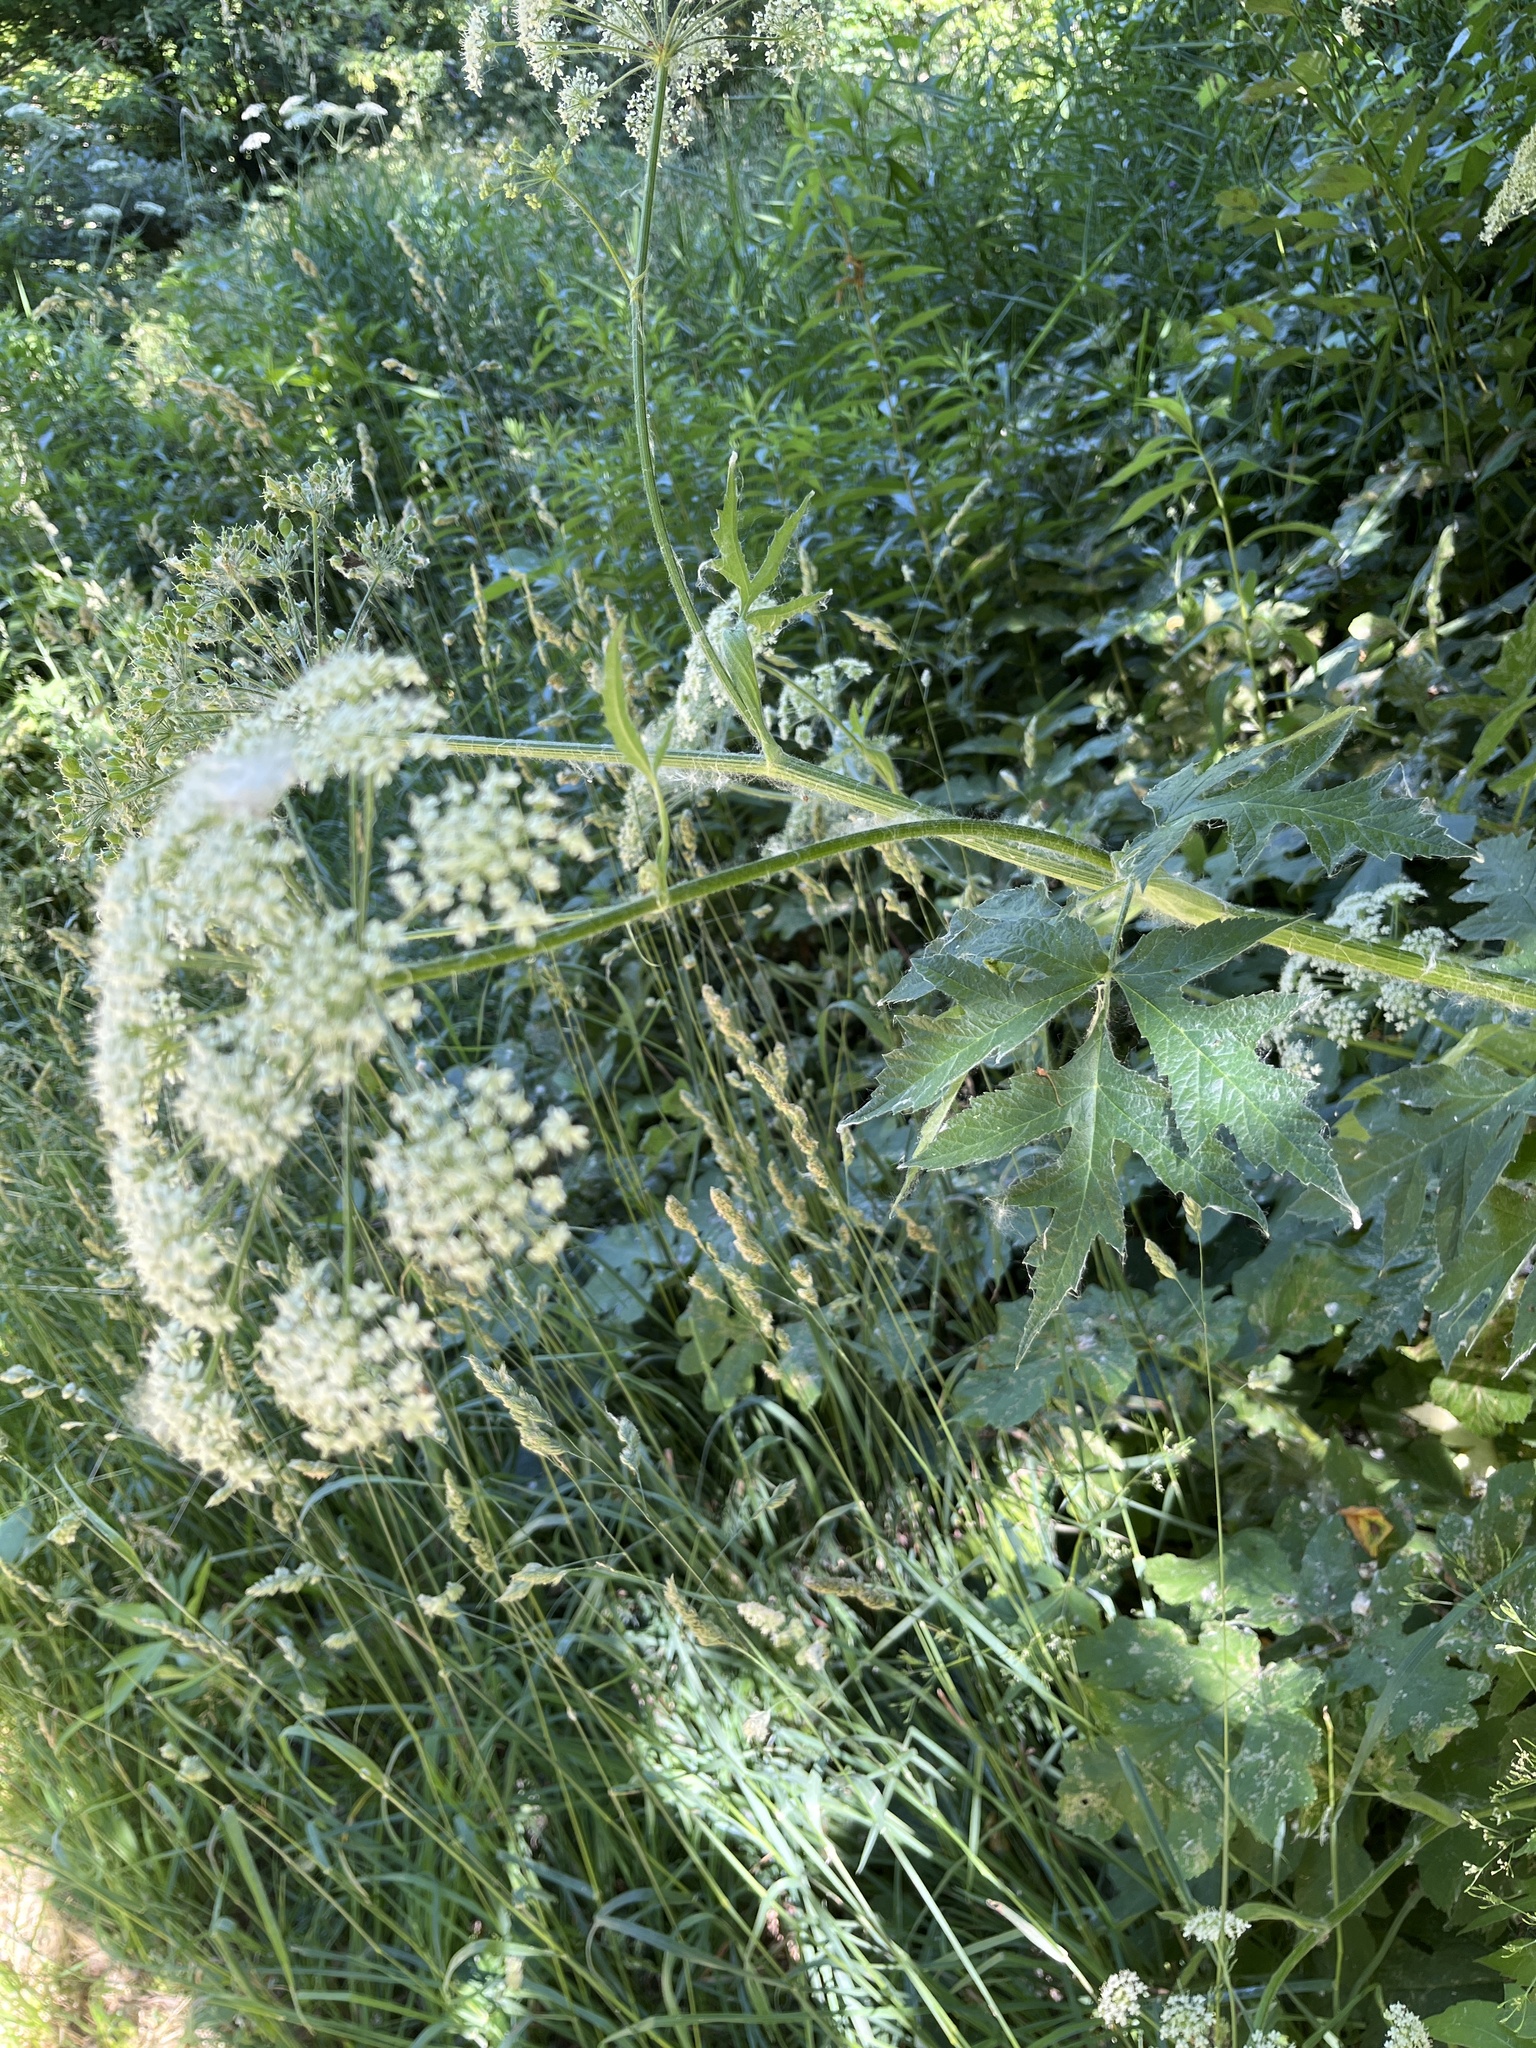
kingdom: Plantae
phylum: Tracheophyta
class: Magnoliopsida
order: Apiales
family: Apiaceae
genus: Heracleum
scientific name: Heracleum maximum
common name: American cow parsnip
